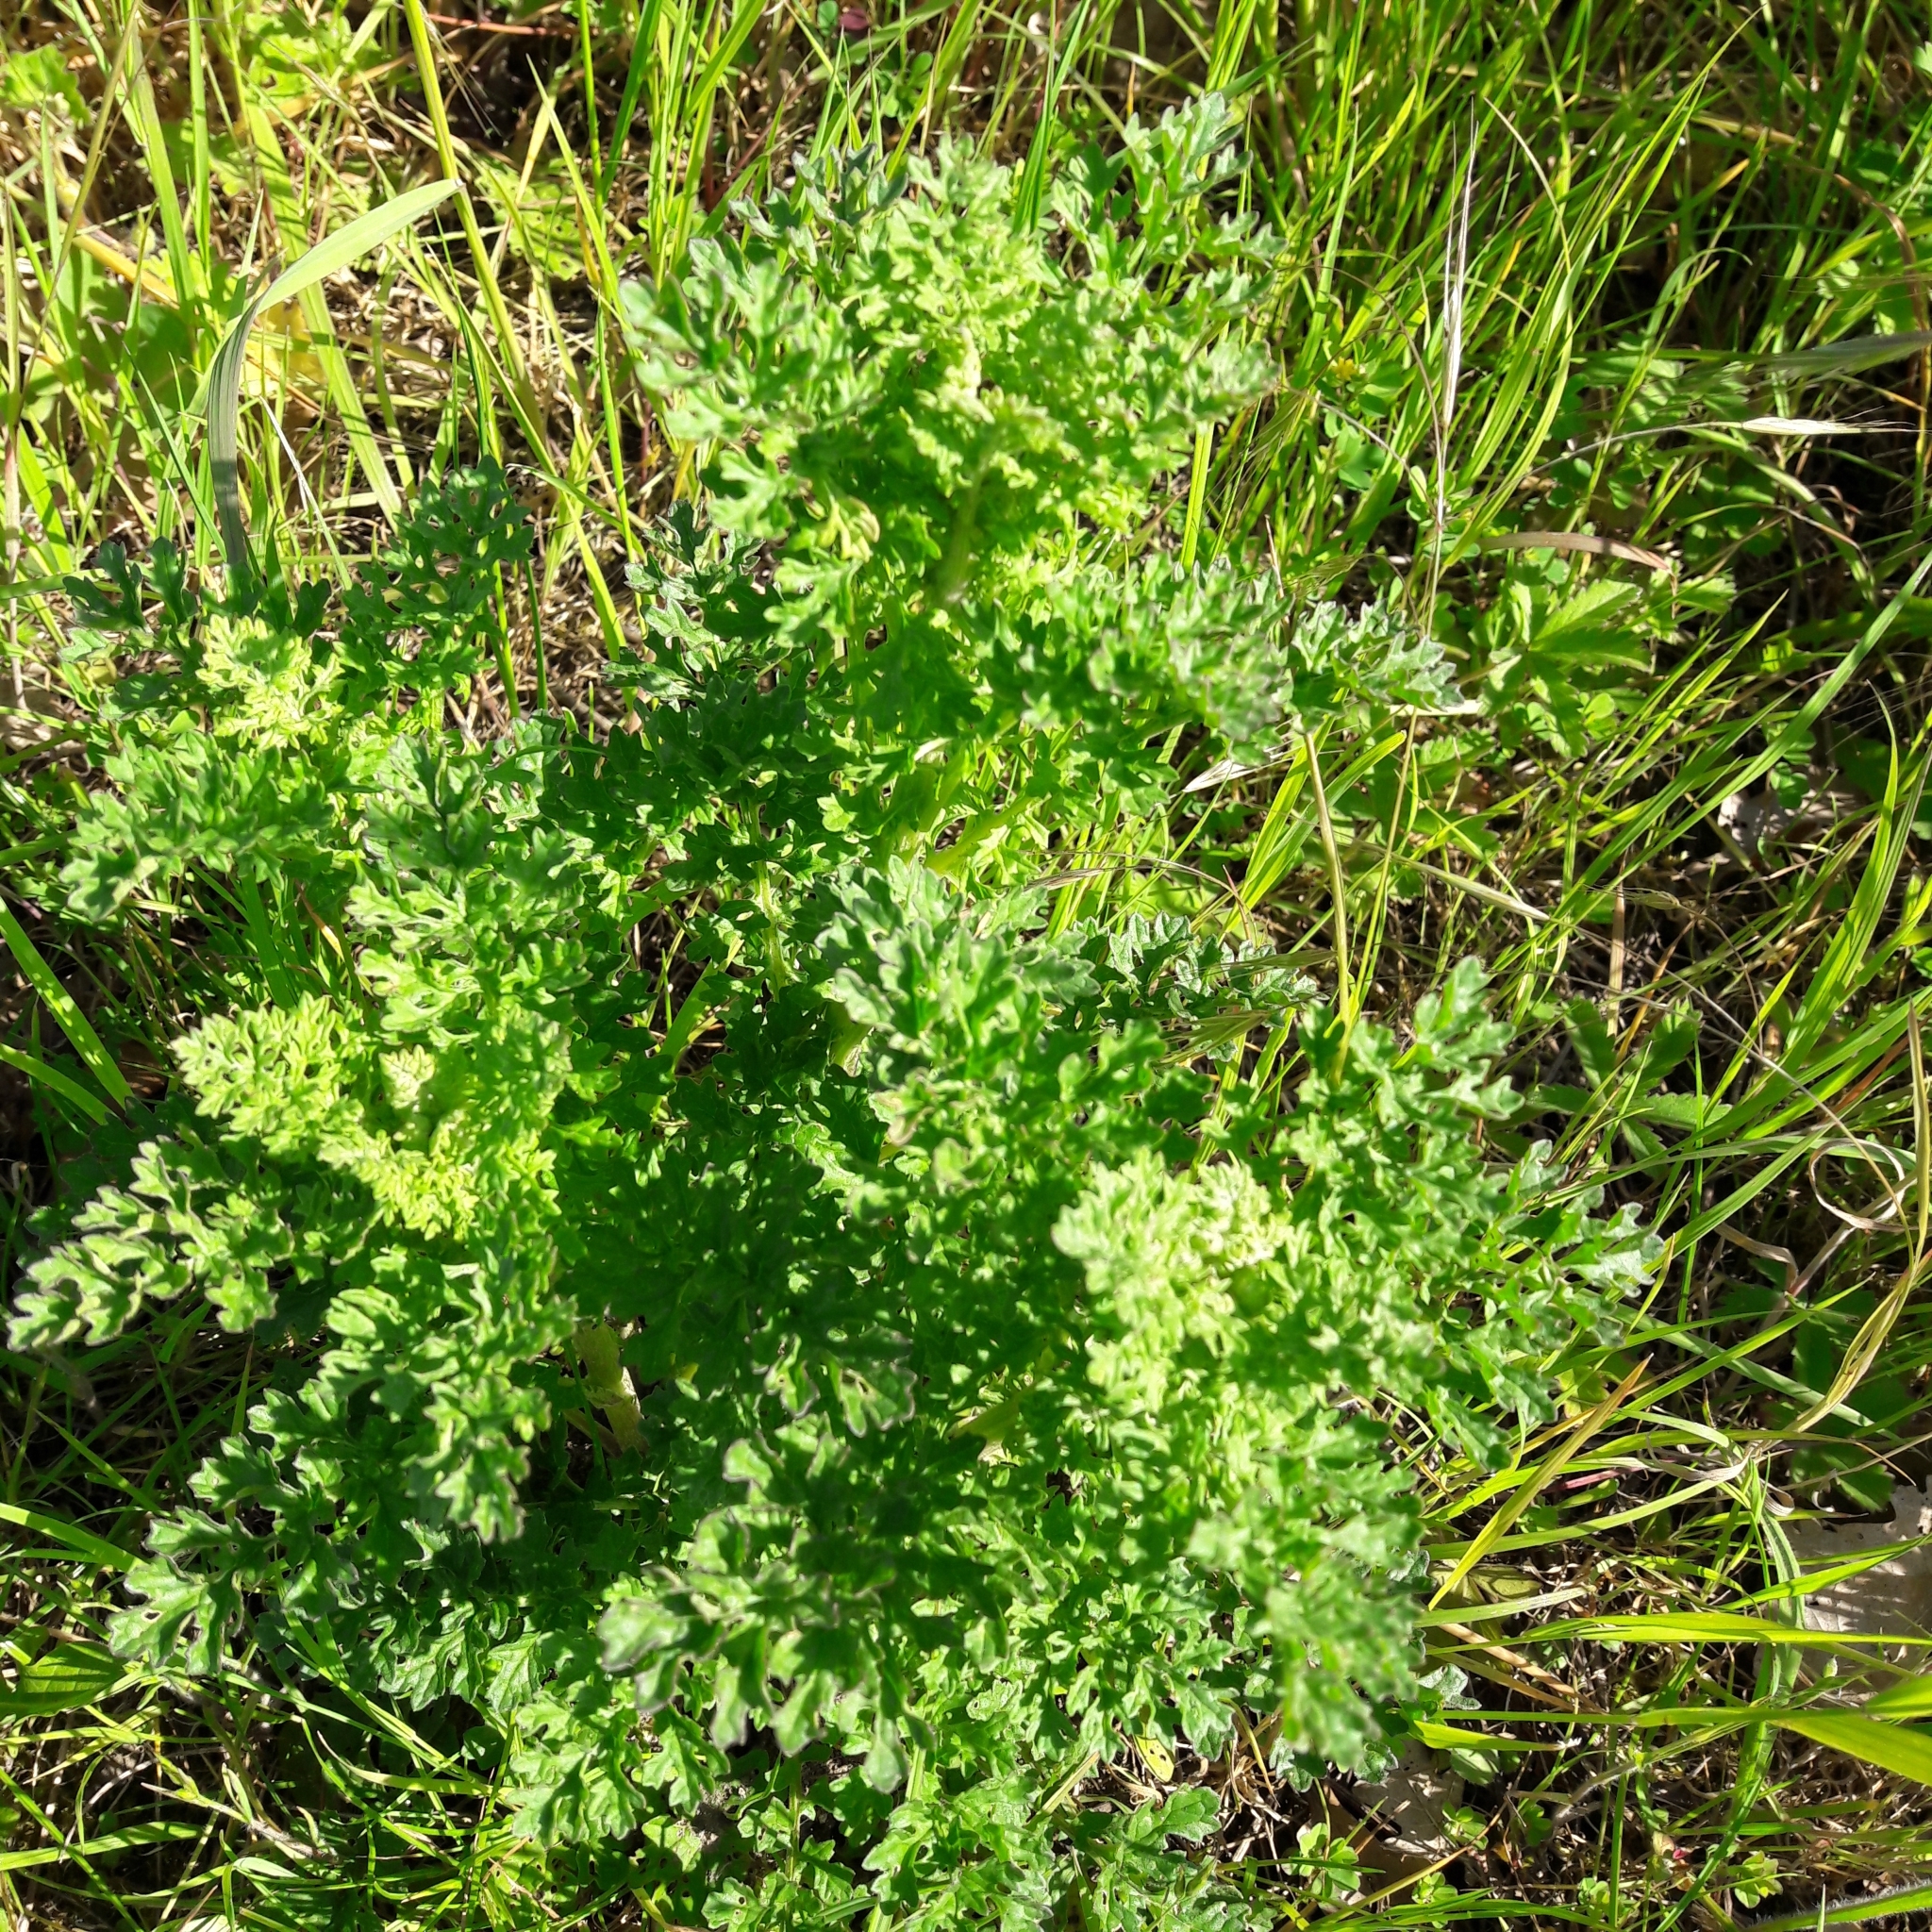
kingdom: Plantae
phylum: Tracheophyta
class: Magnoliopsida
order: Asterales
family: Asteraceae
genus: Jacobaea
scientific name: Jacobaea vulgaris
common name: Stinking willie
